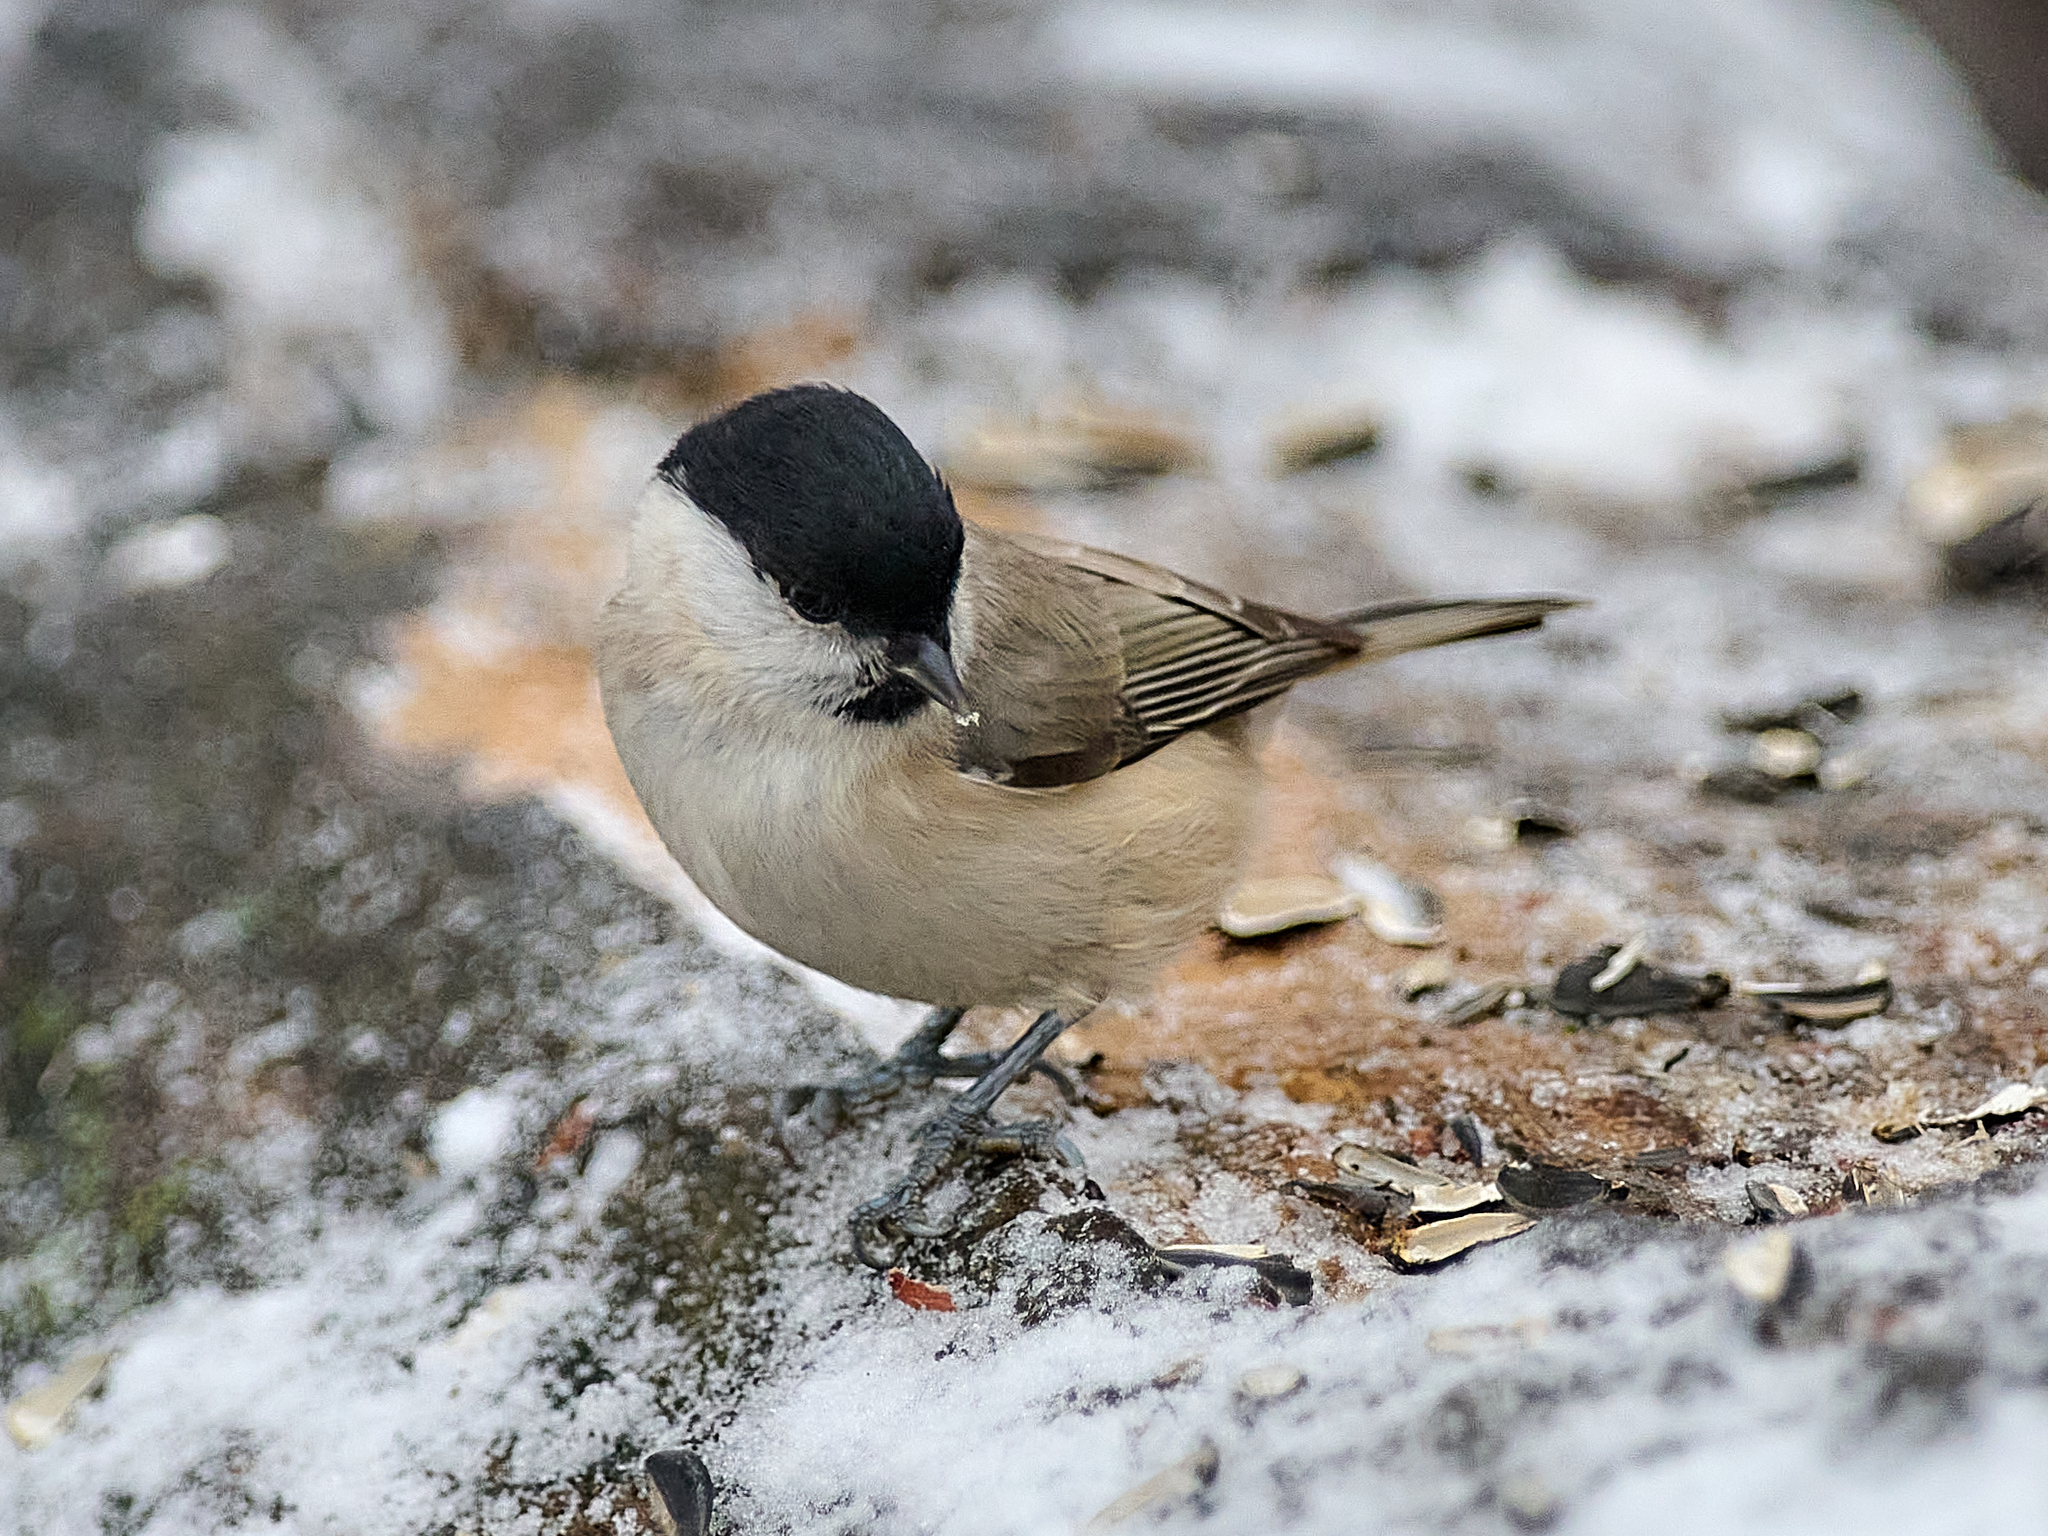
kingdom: Animalia
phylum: Chordata
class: Aves
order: Passeriformes
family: Paridae
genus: Poecile
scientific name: Poecile palustris
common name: Marsh tit
